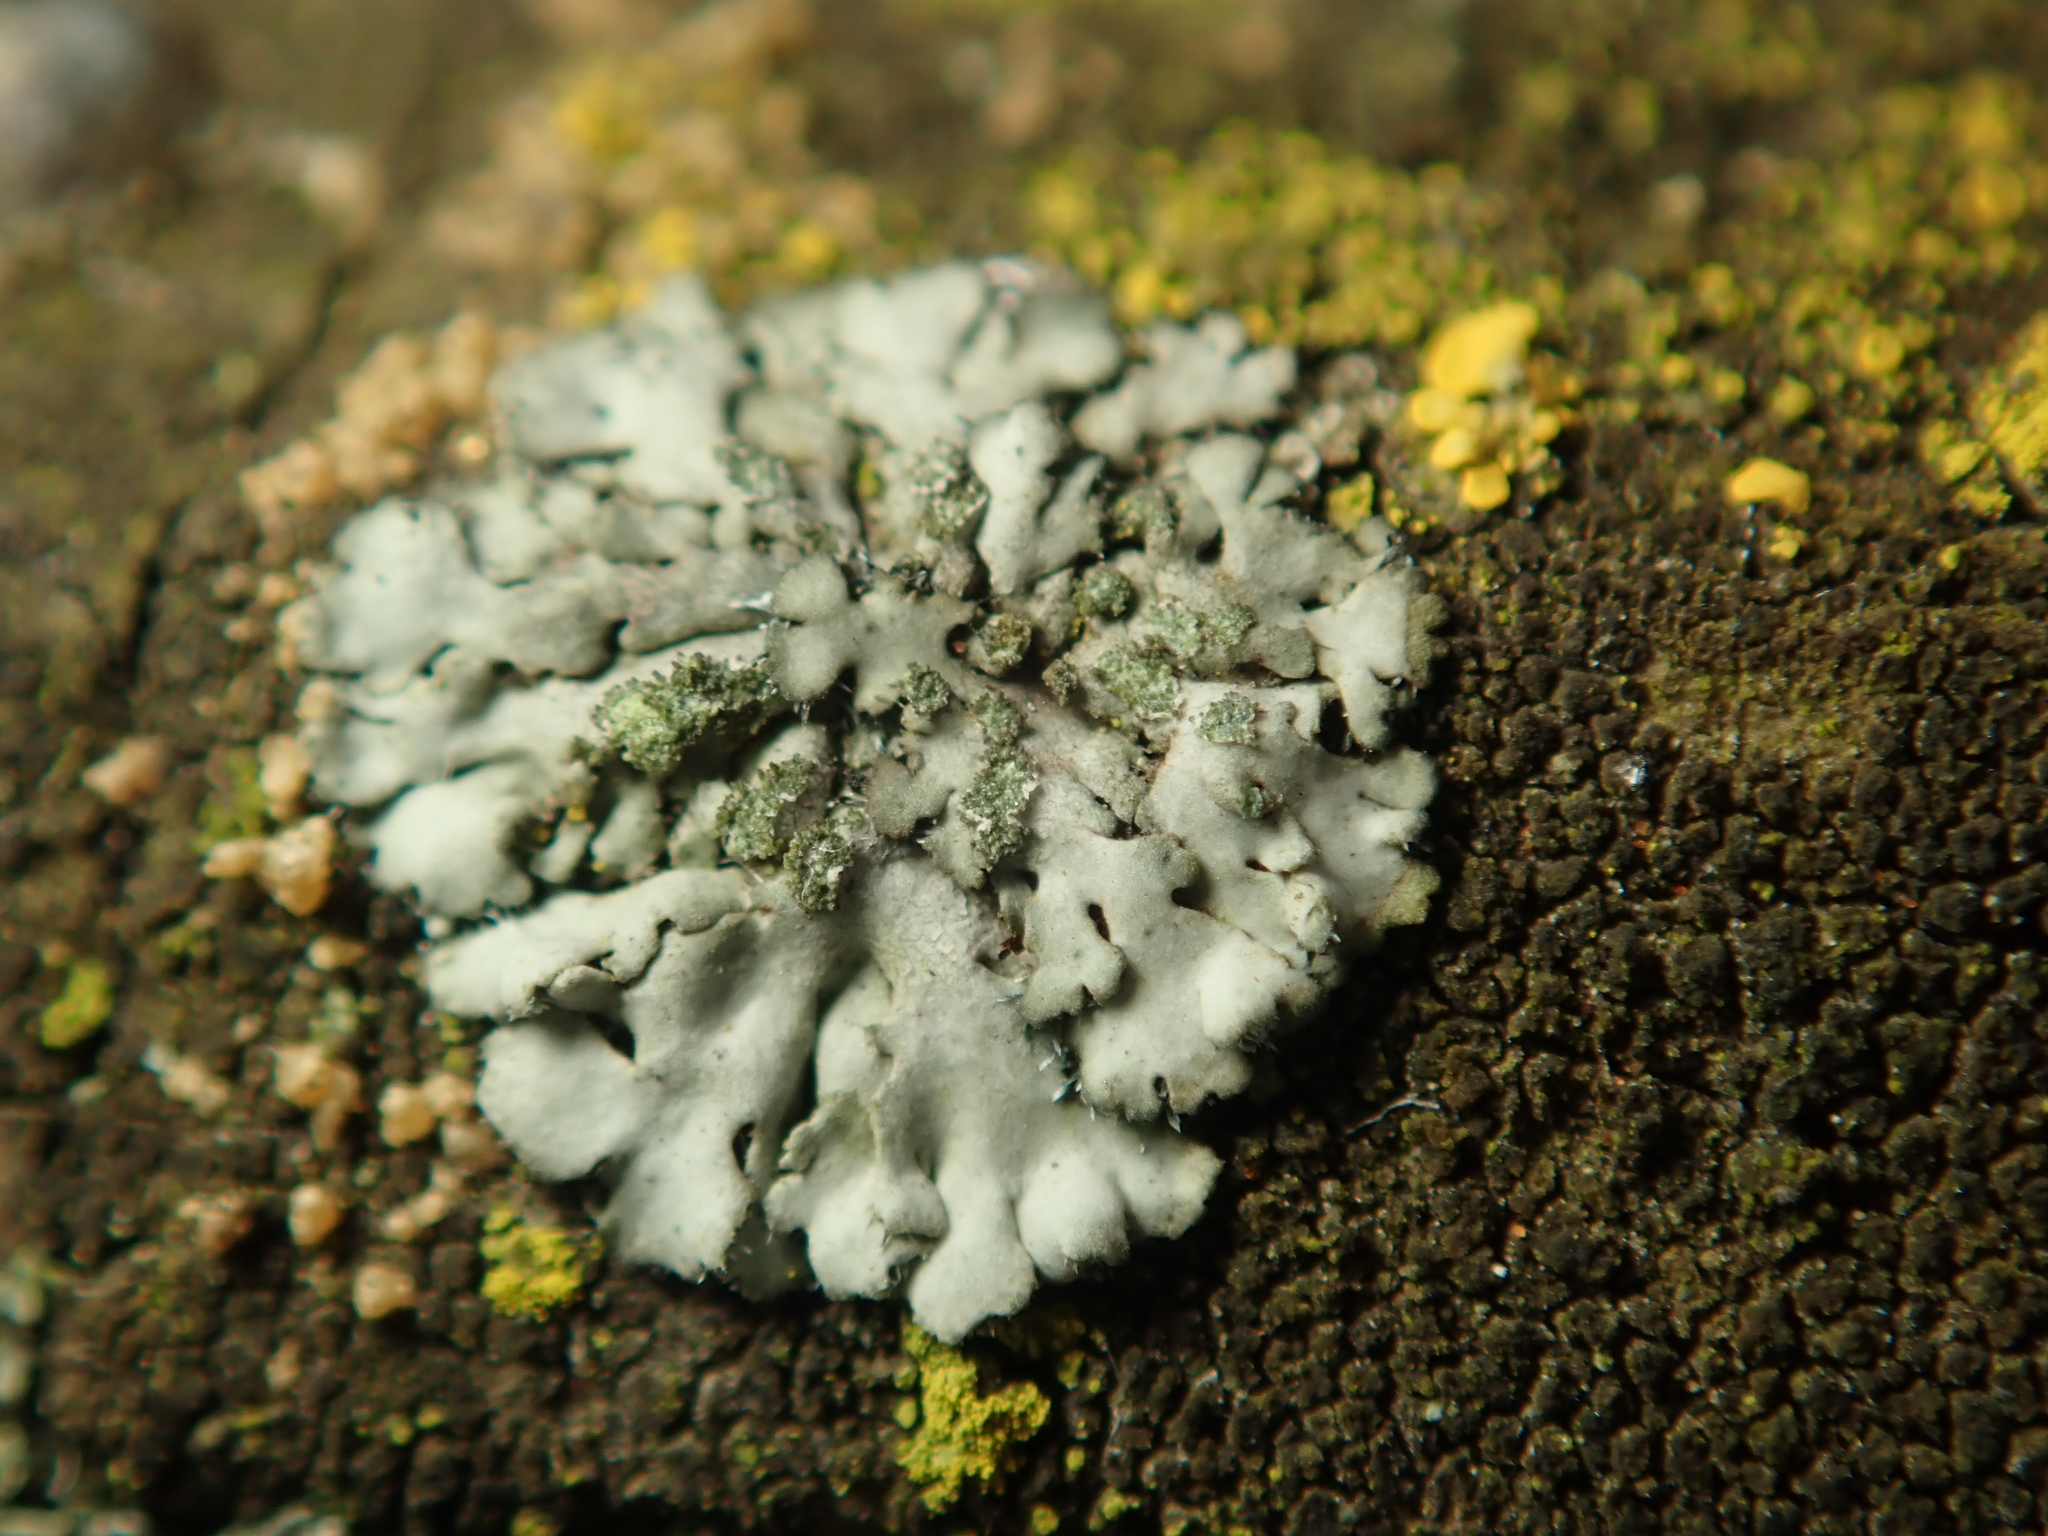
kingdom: Fungi
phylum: Ascomycota
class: Lecanoromycetes
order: Caliciales
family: Physciaceae
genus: Phaeophyscia
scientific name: Phaeophyscia orbicularis
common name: Mealy shadow lichen
